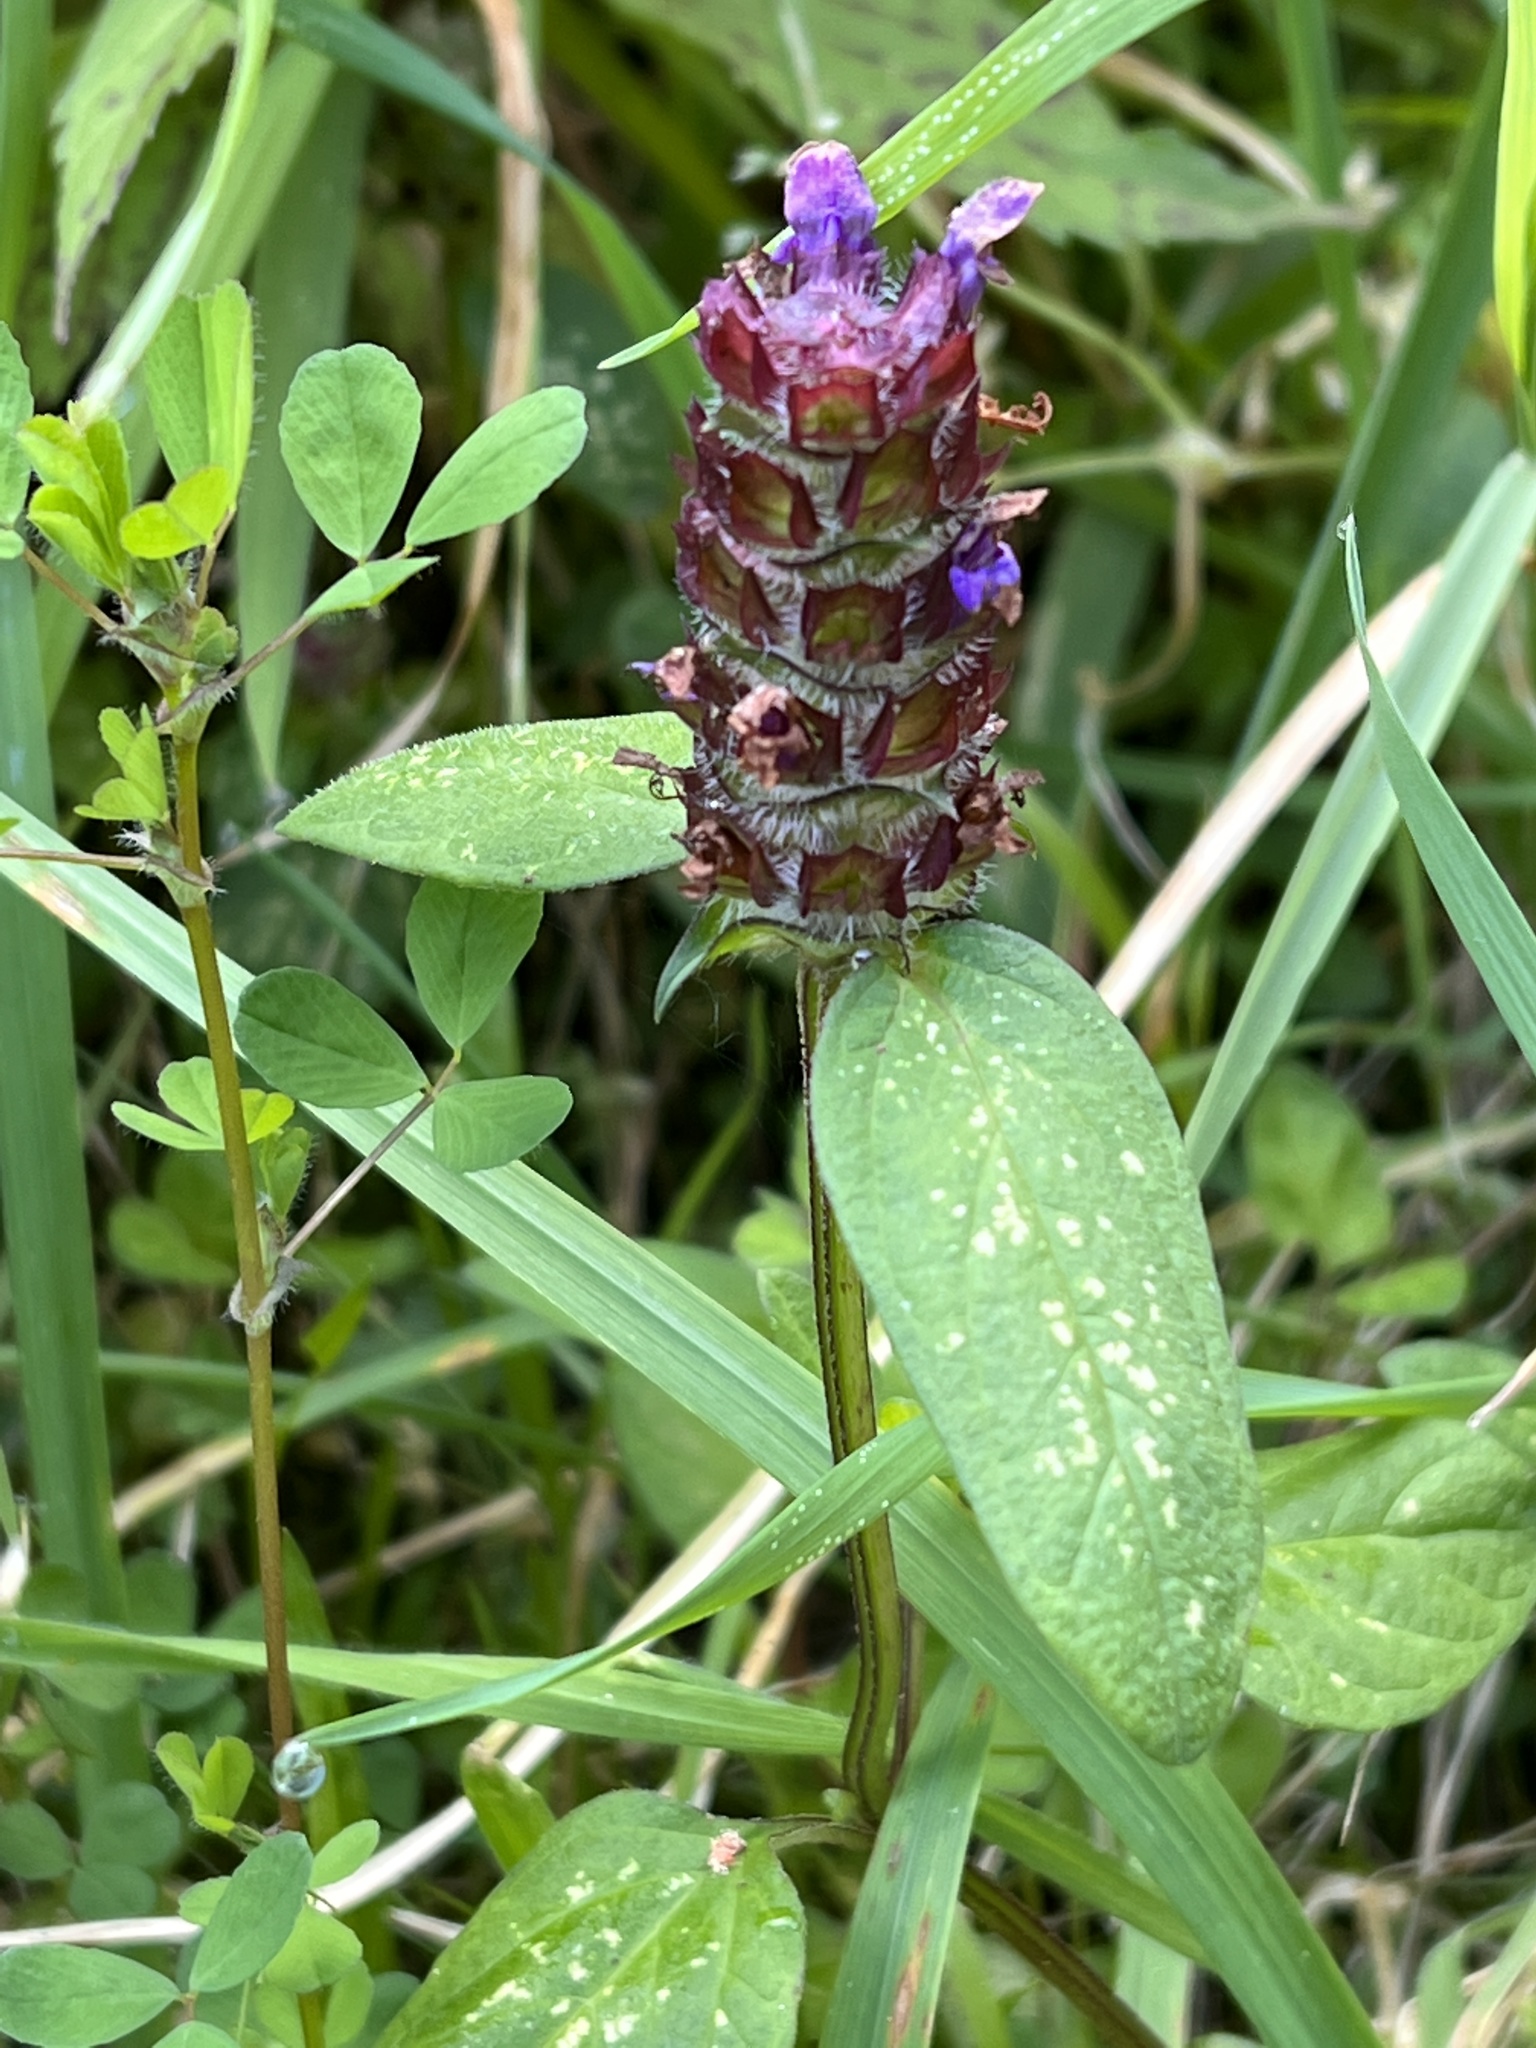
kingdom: Plantae
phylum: Tracheophyta
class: Magnoliopsida
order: Lamiales
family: Lamiaceae
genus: Prunella
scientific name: Prunella vulgaris
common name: Heal-all
